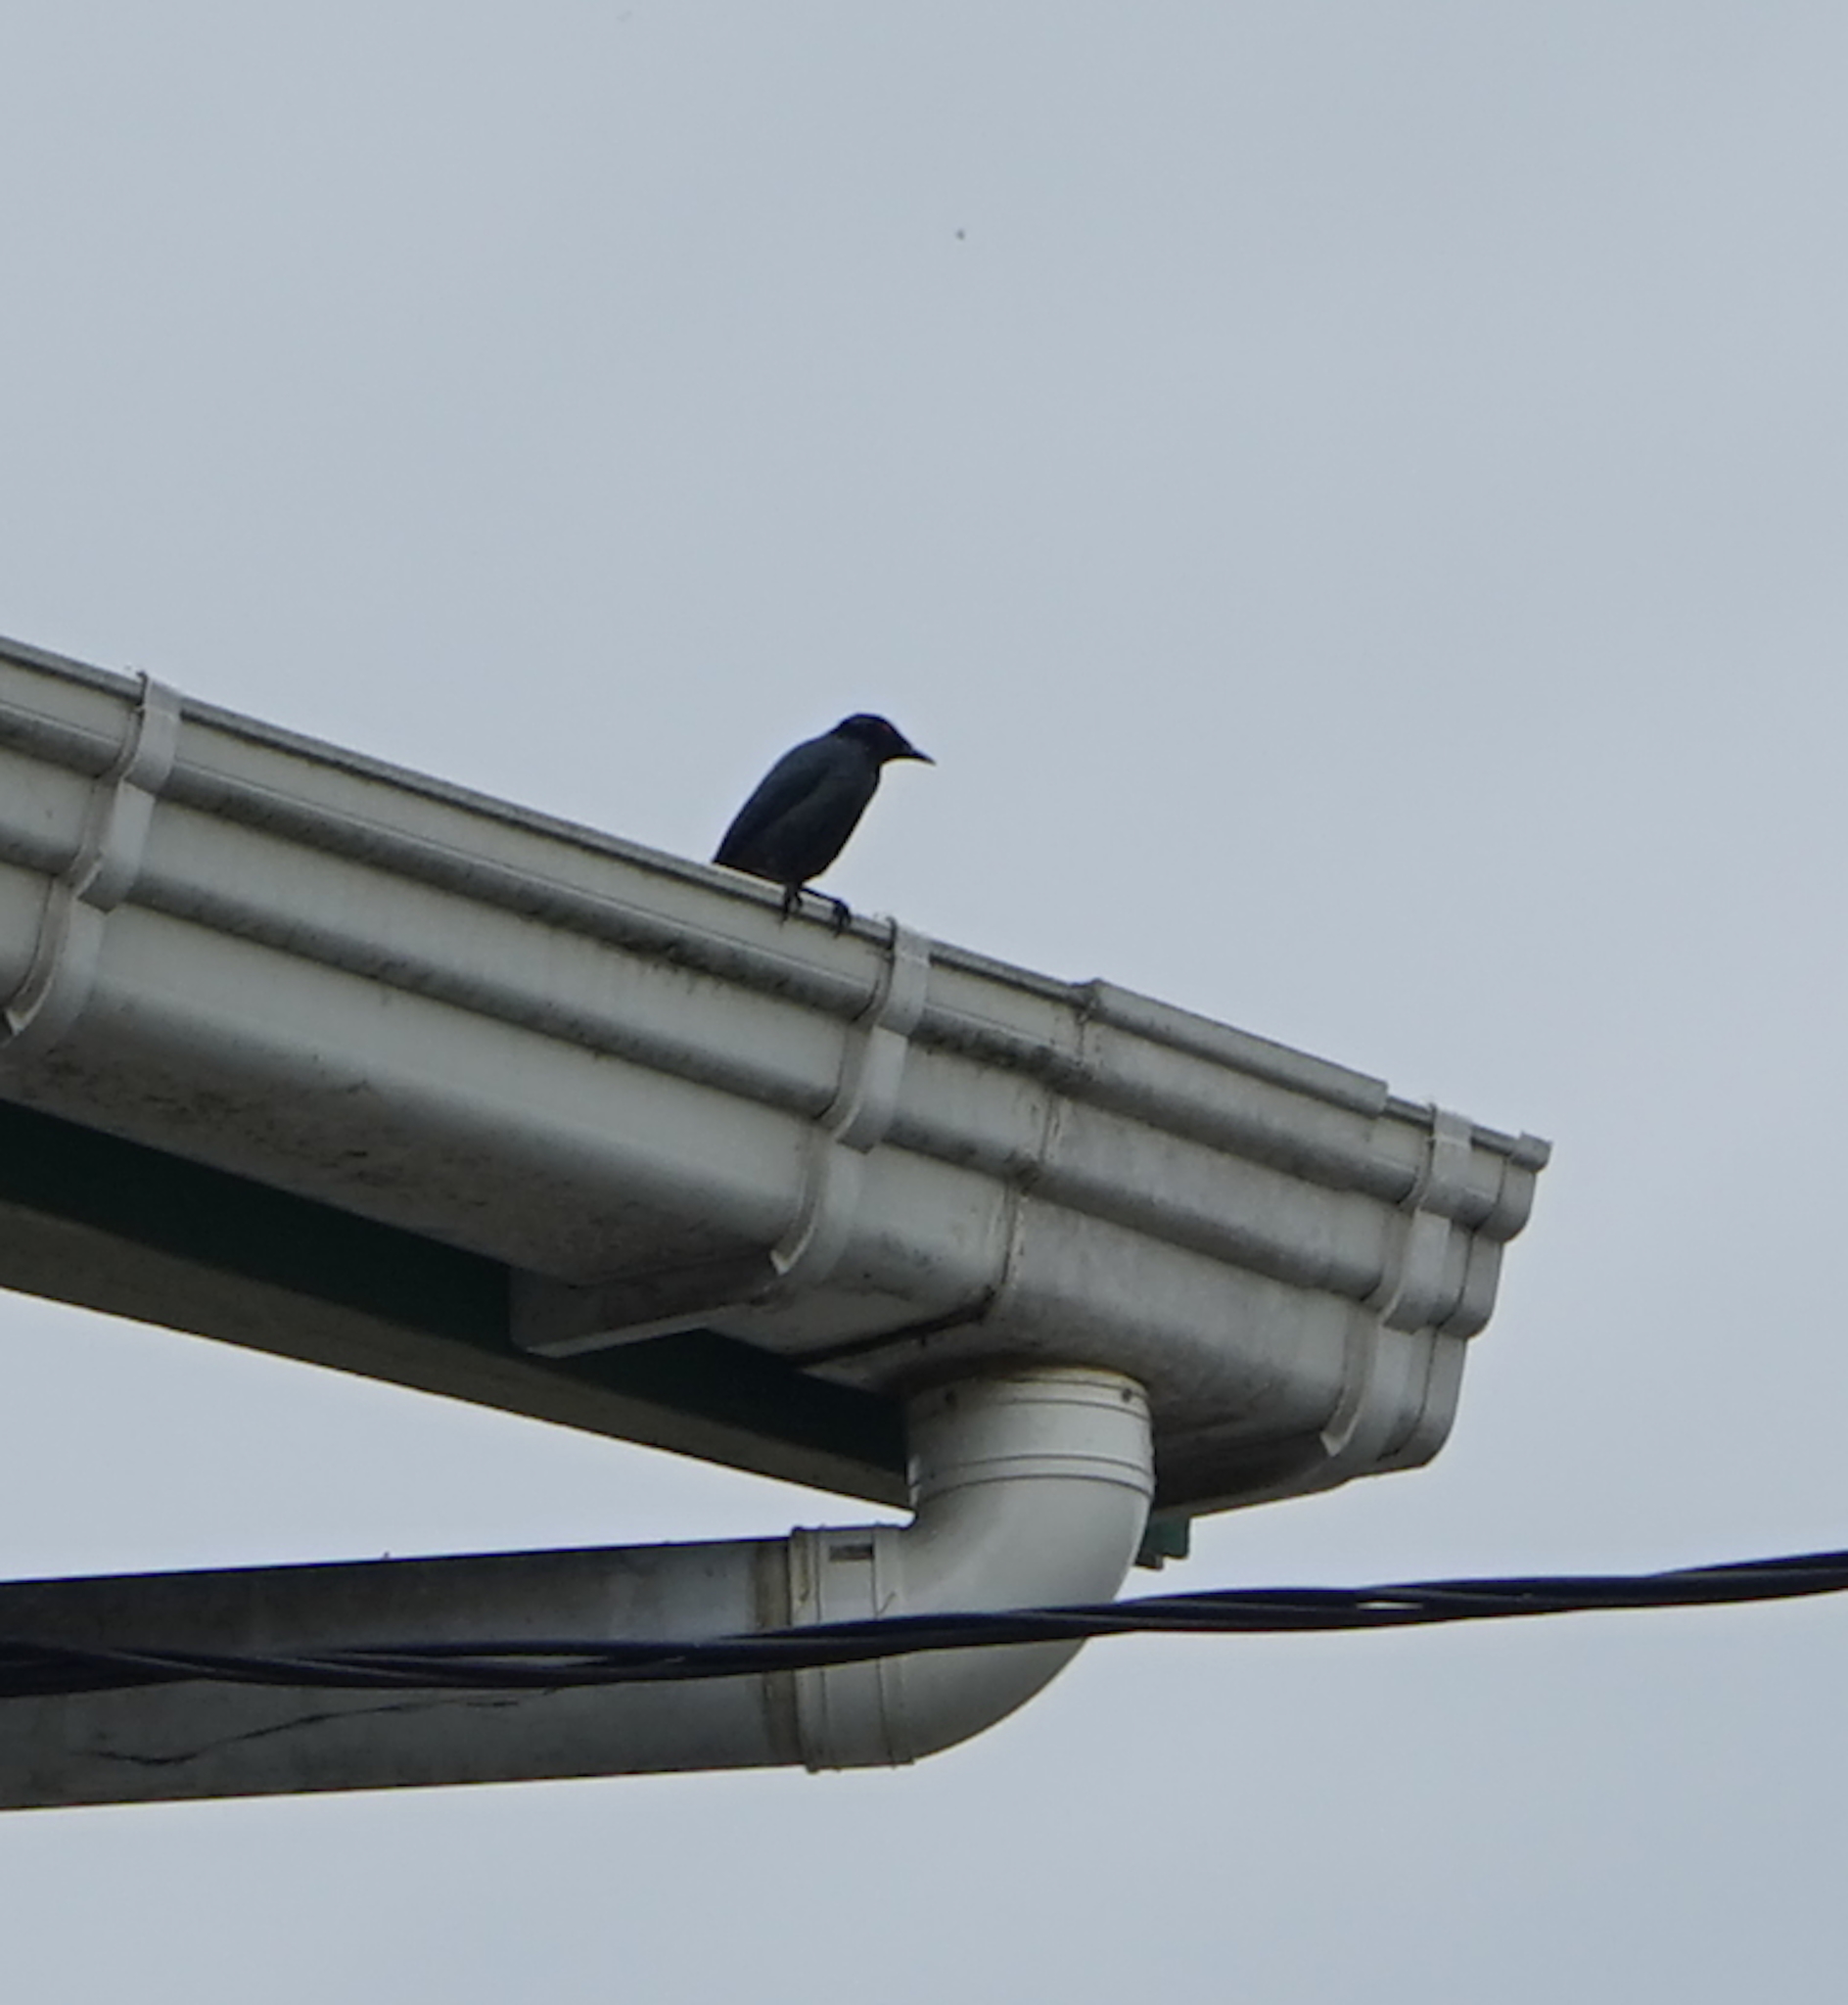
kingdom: Animalia
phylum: Chordata
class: Aves
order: Passeriformes
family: Sturnidae
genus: Aplonis
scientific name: Aplonis panayensis
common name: Asian glossy starling
